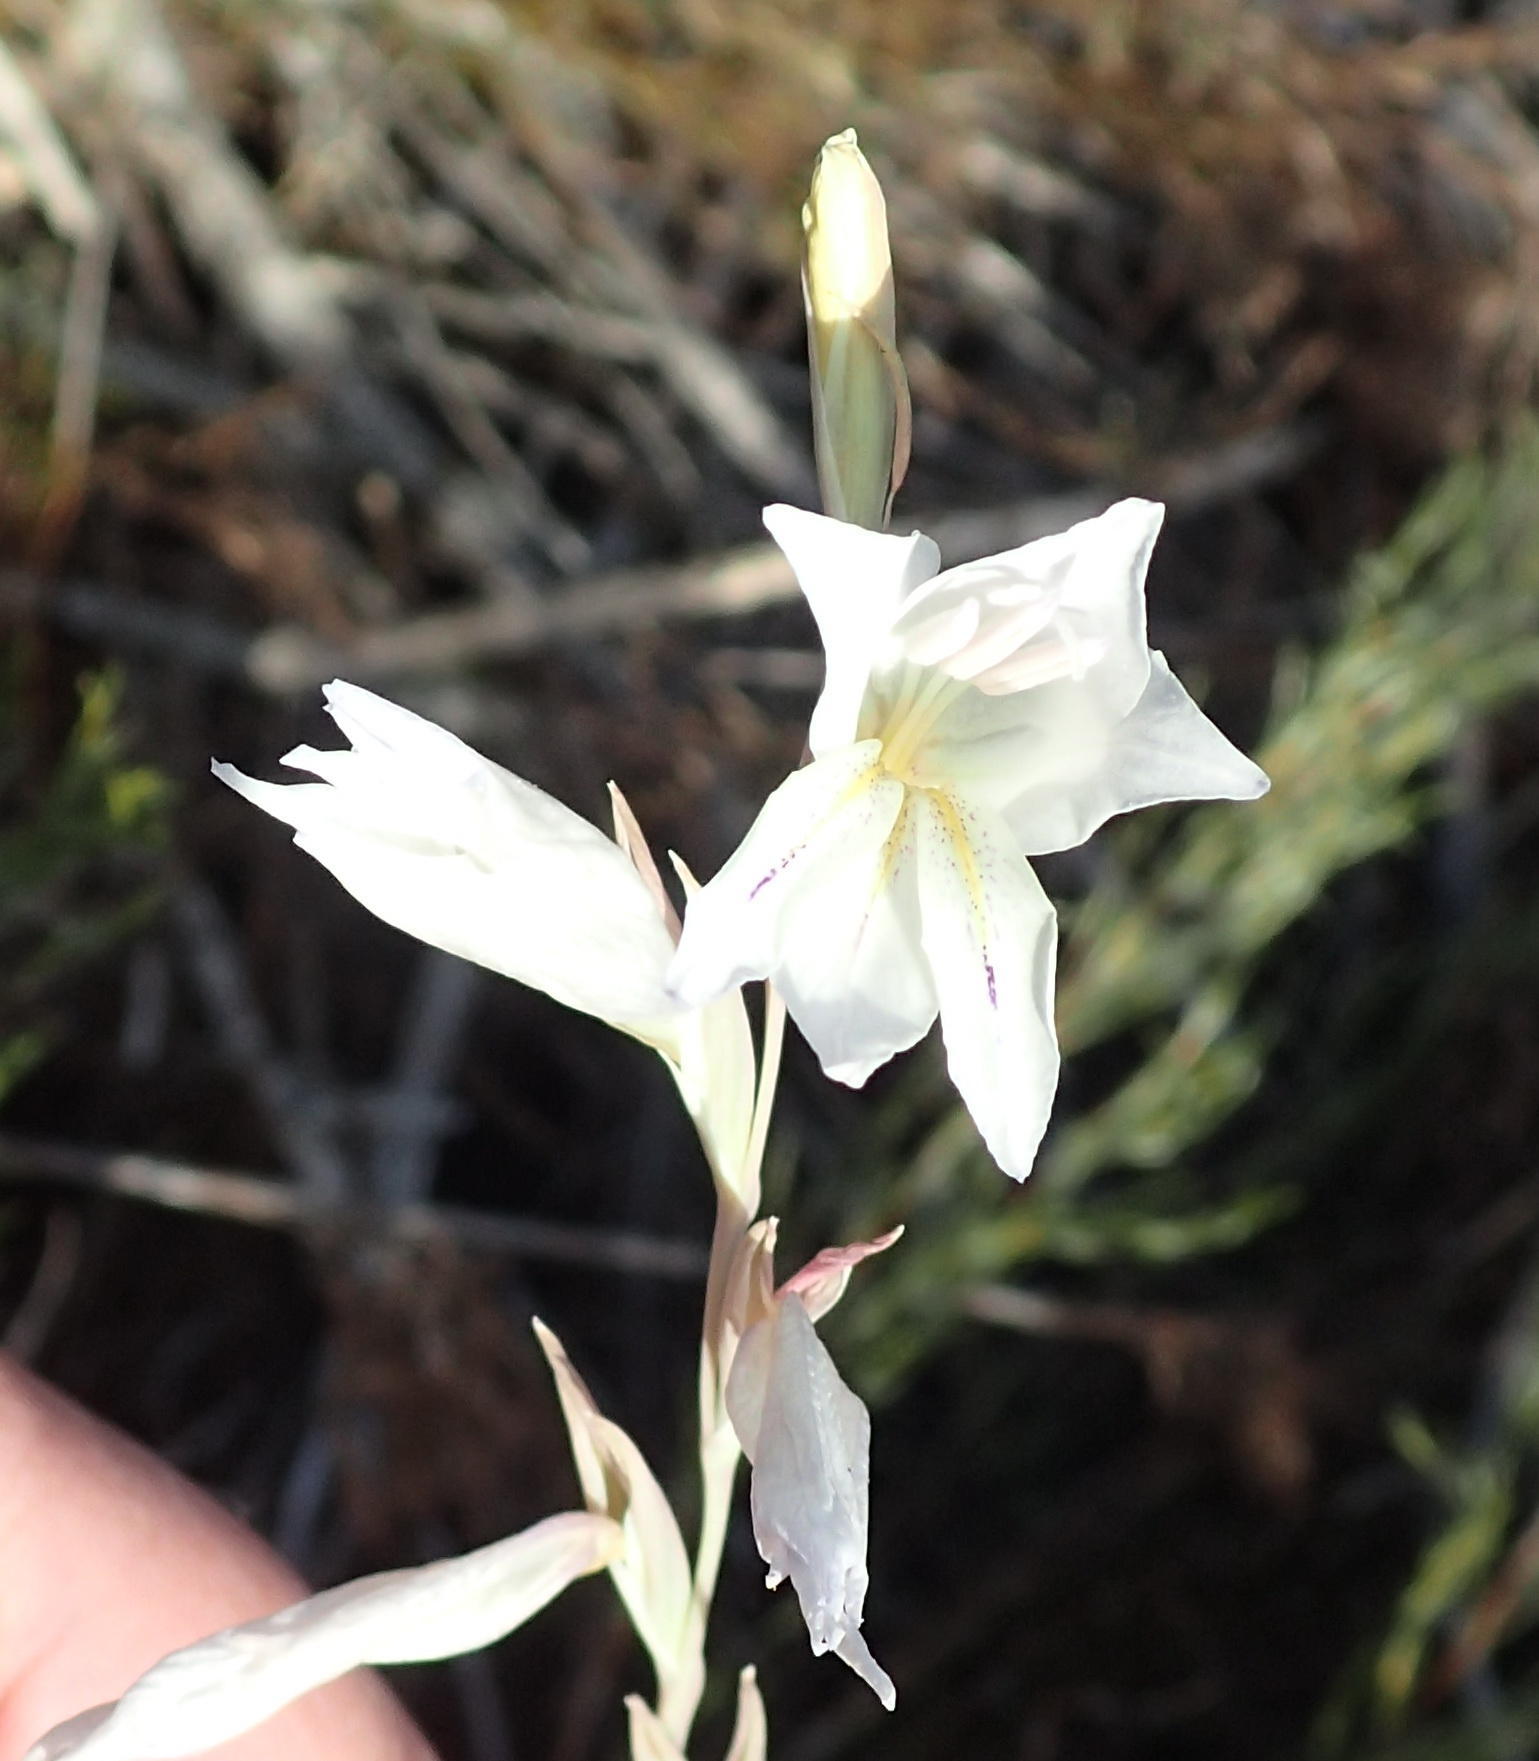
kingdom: Plantae
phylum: Tracheophyta
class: Liliopsida
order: Asparagales
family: Iridaceae
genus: Gladiolus
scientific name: Gladiolus vaginatus
